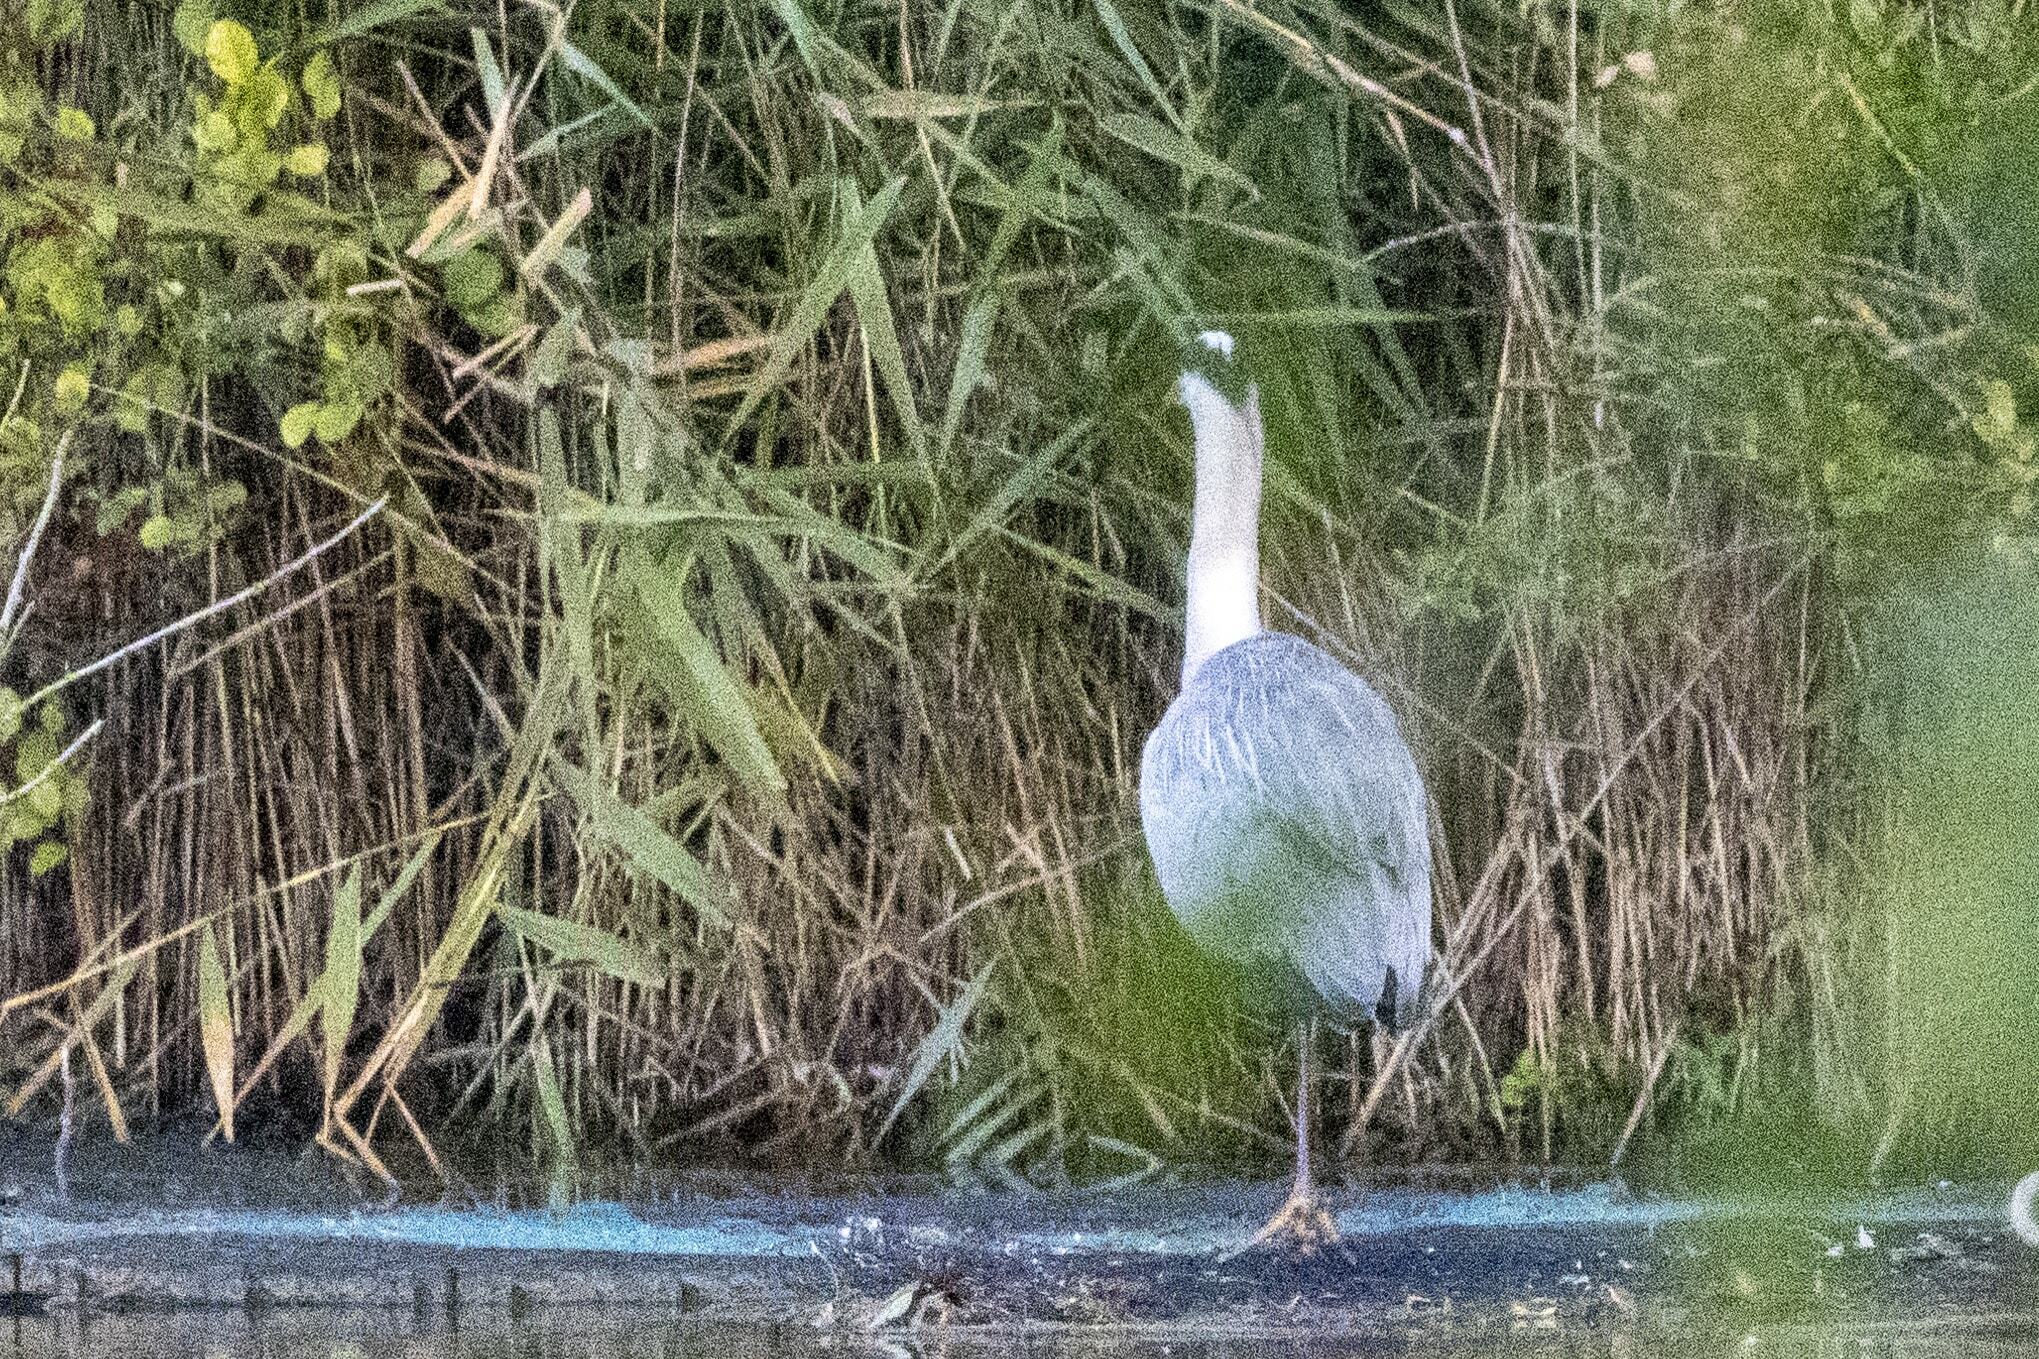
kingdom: Animalia
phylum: Chordata
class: Aves
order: Pelecaniformes
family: Ardeidae
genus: Ardea
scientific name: Ardea cinerea
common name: Grey heron
